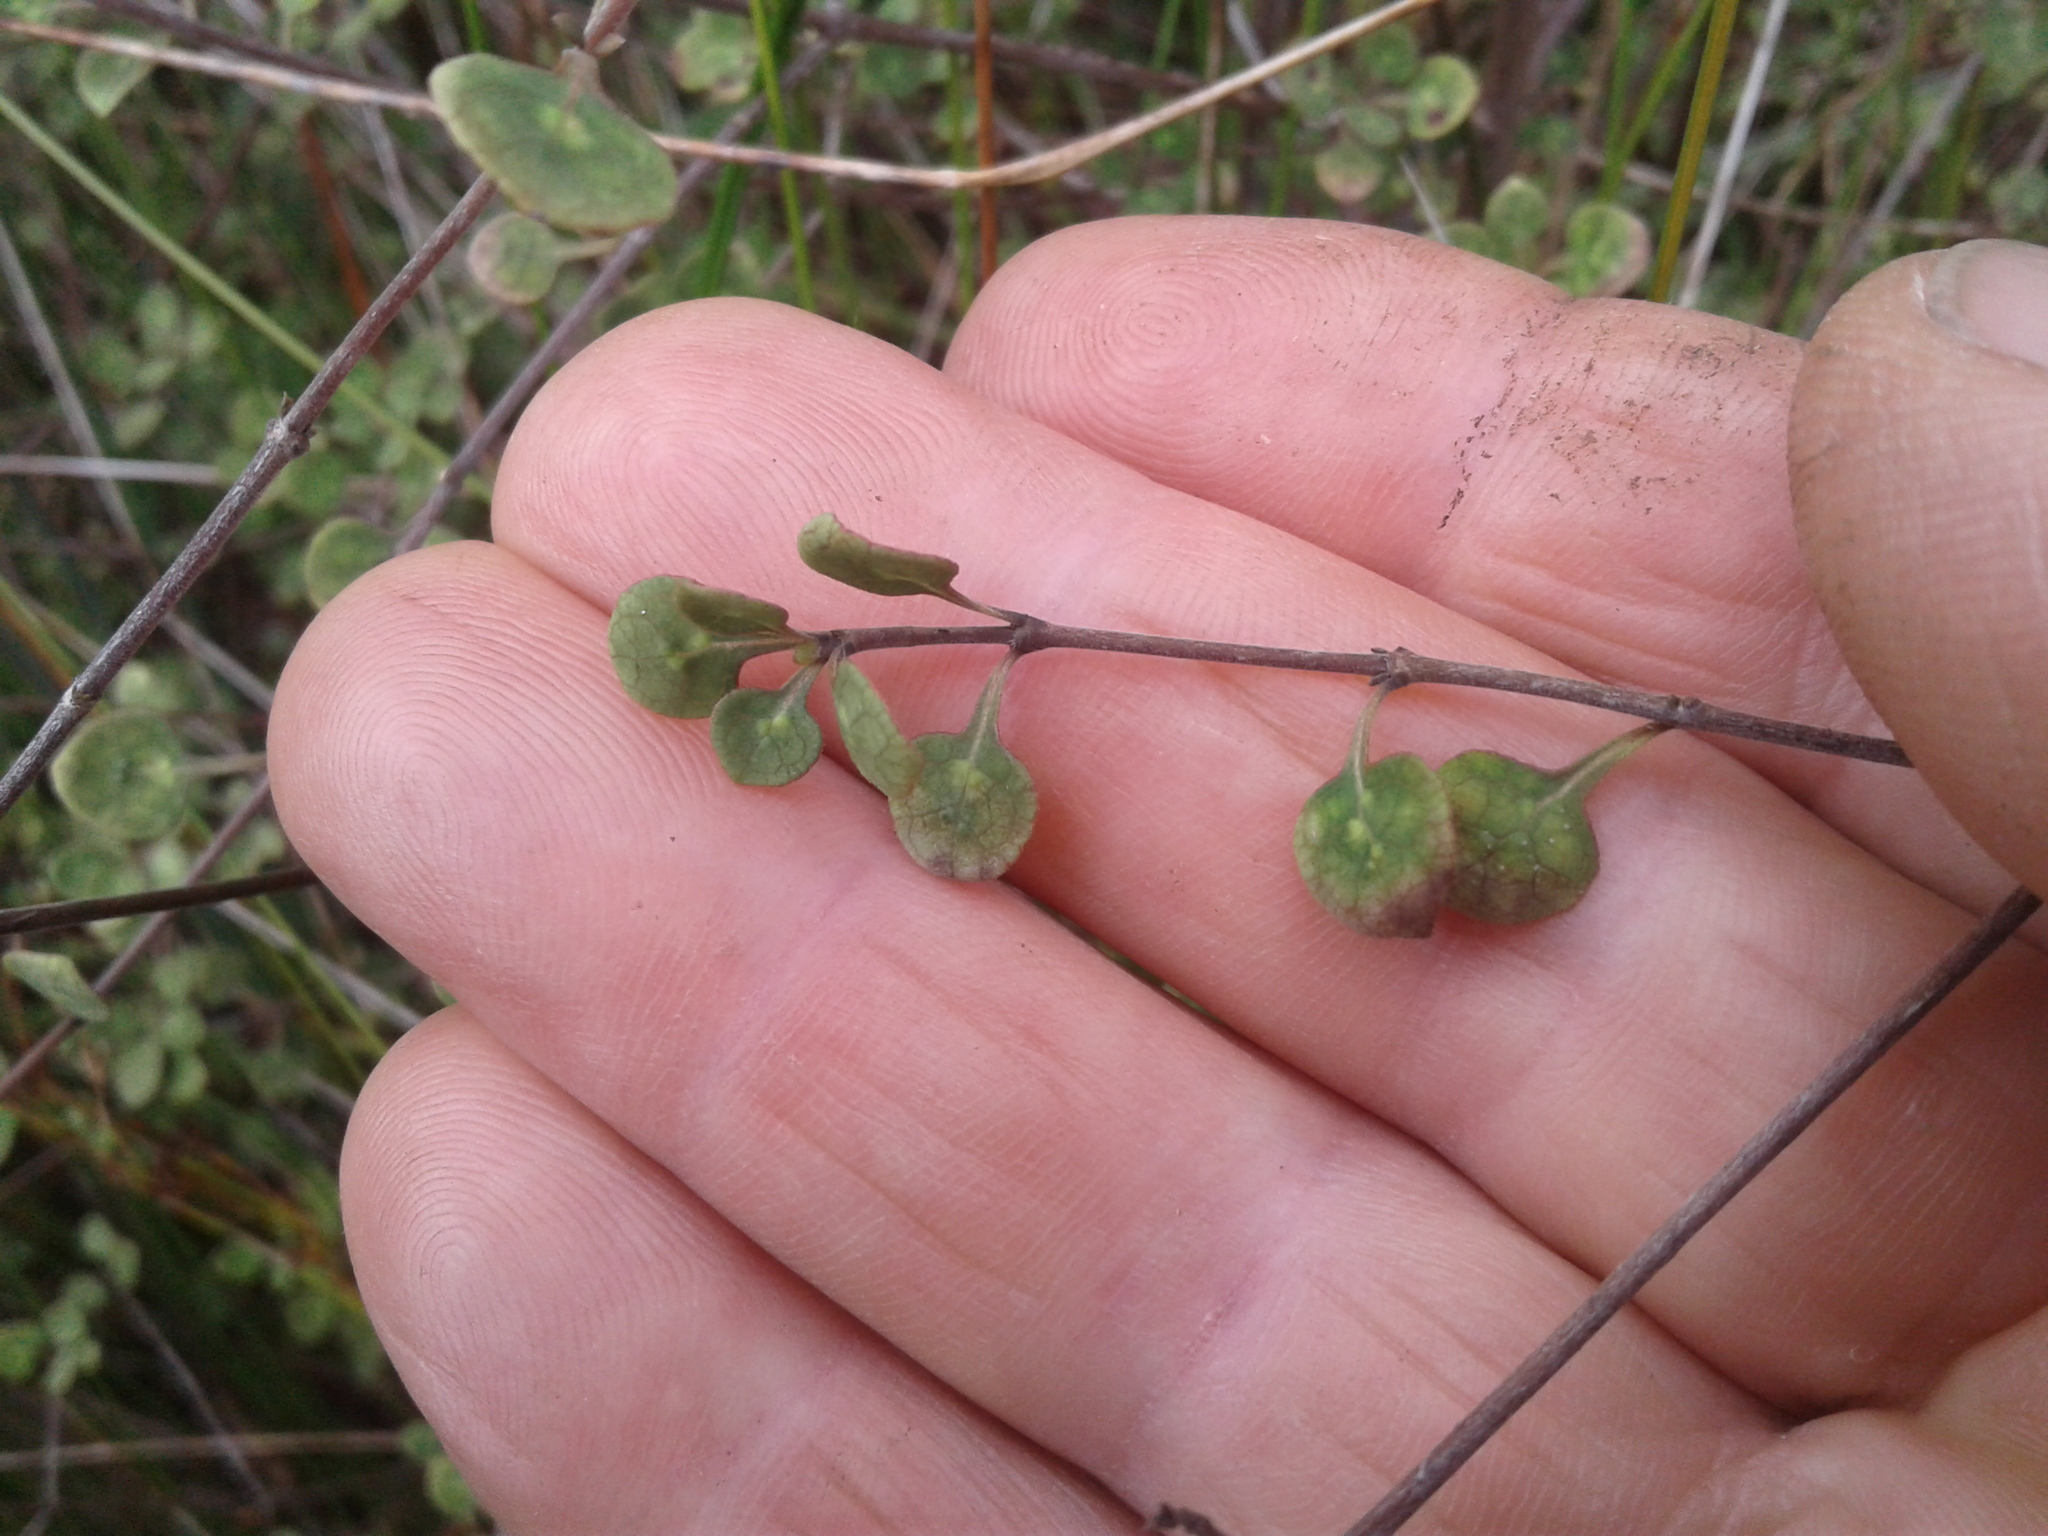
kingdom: Plantae
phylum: Tracheophyta
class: Magnoliopsida
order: Gentianales
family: Rubiaceae
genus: Coprosma
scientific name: Coprosma tenuicaulis
